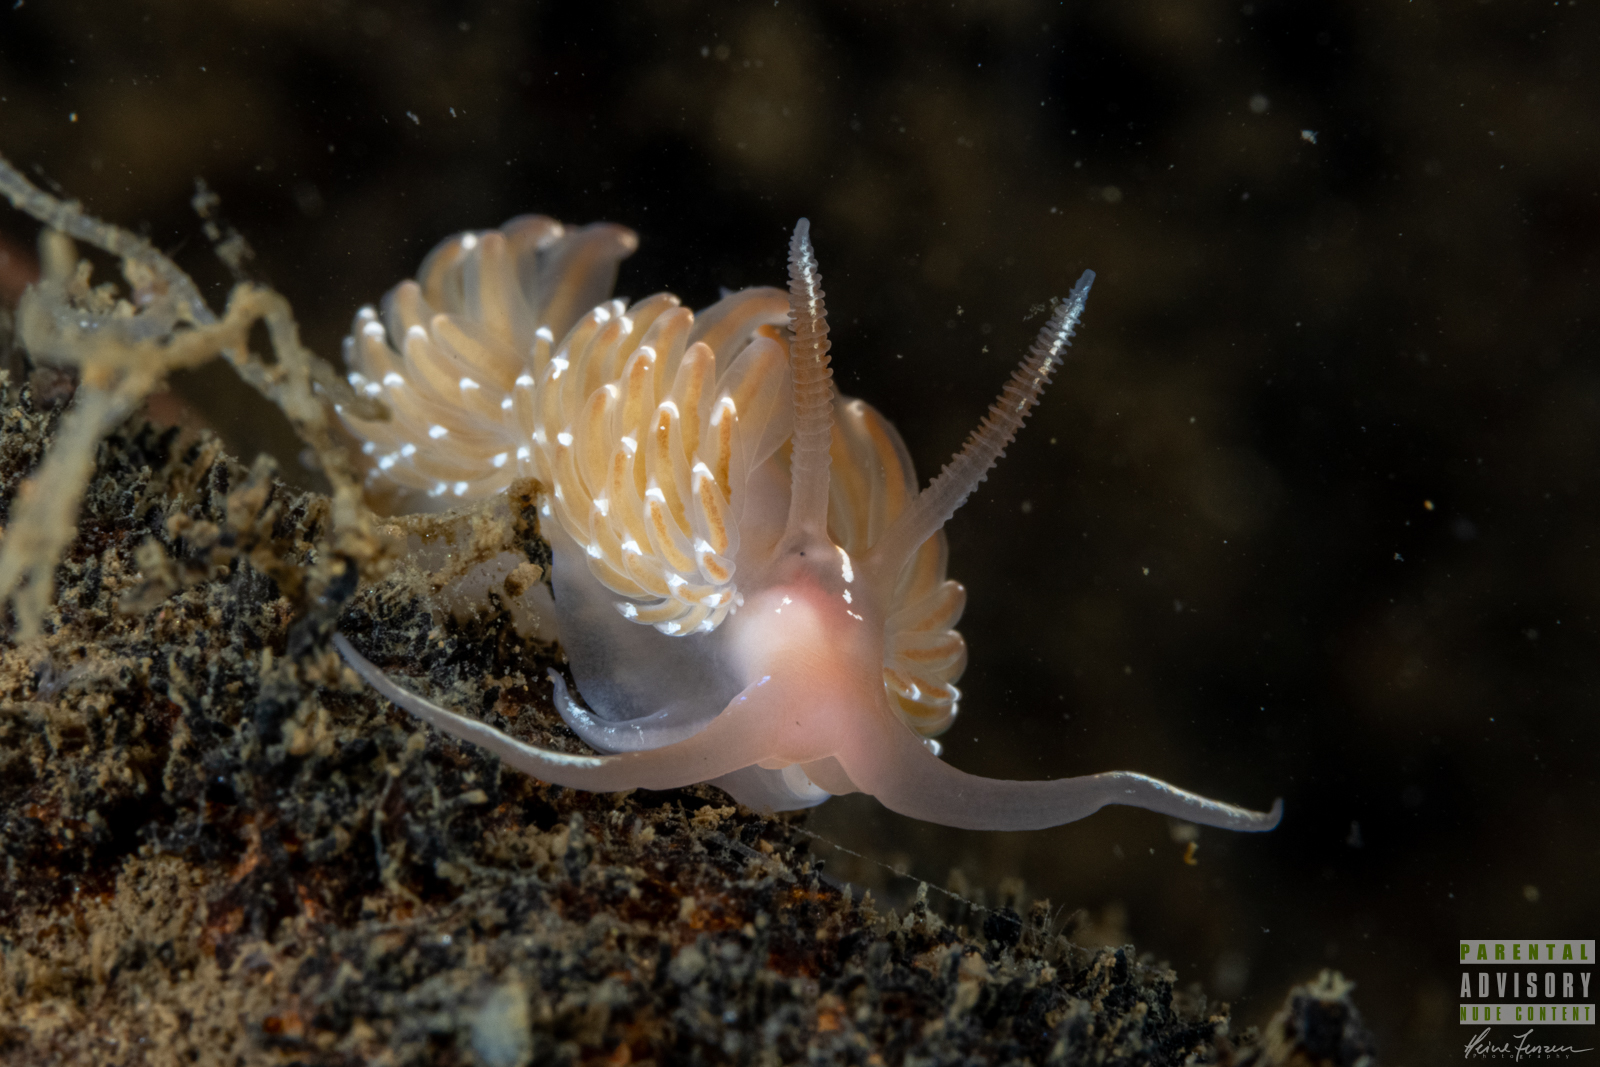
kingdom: Animalia
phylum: Mollusca
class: Gastropoda
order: Nudibranchia
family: Facelinidae
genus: Facelina
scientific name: Facelina bostoniensis
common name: Boston facelina
